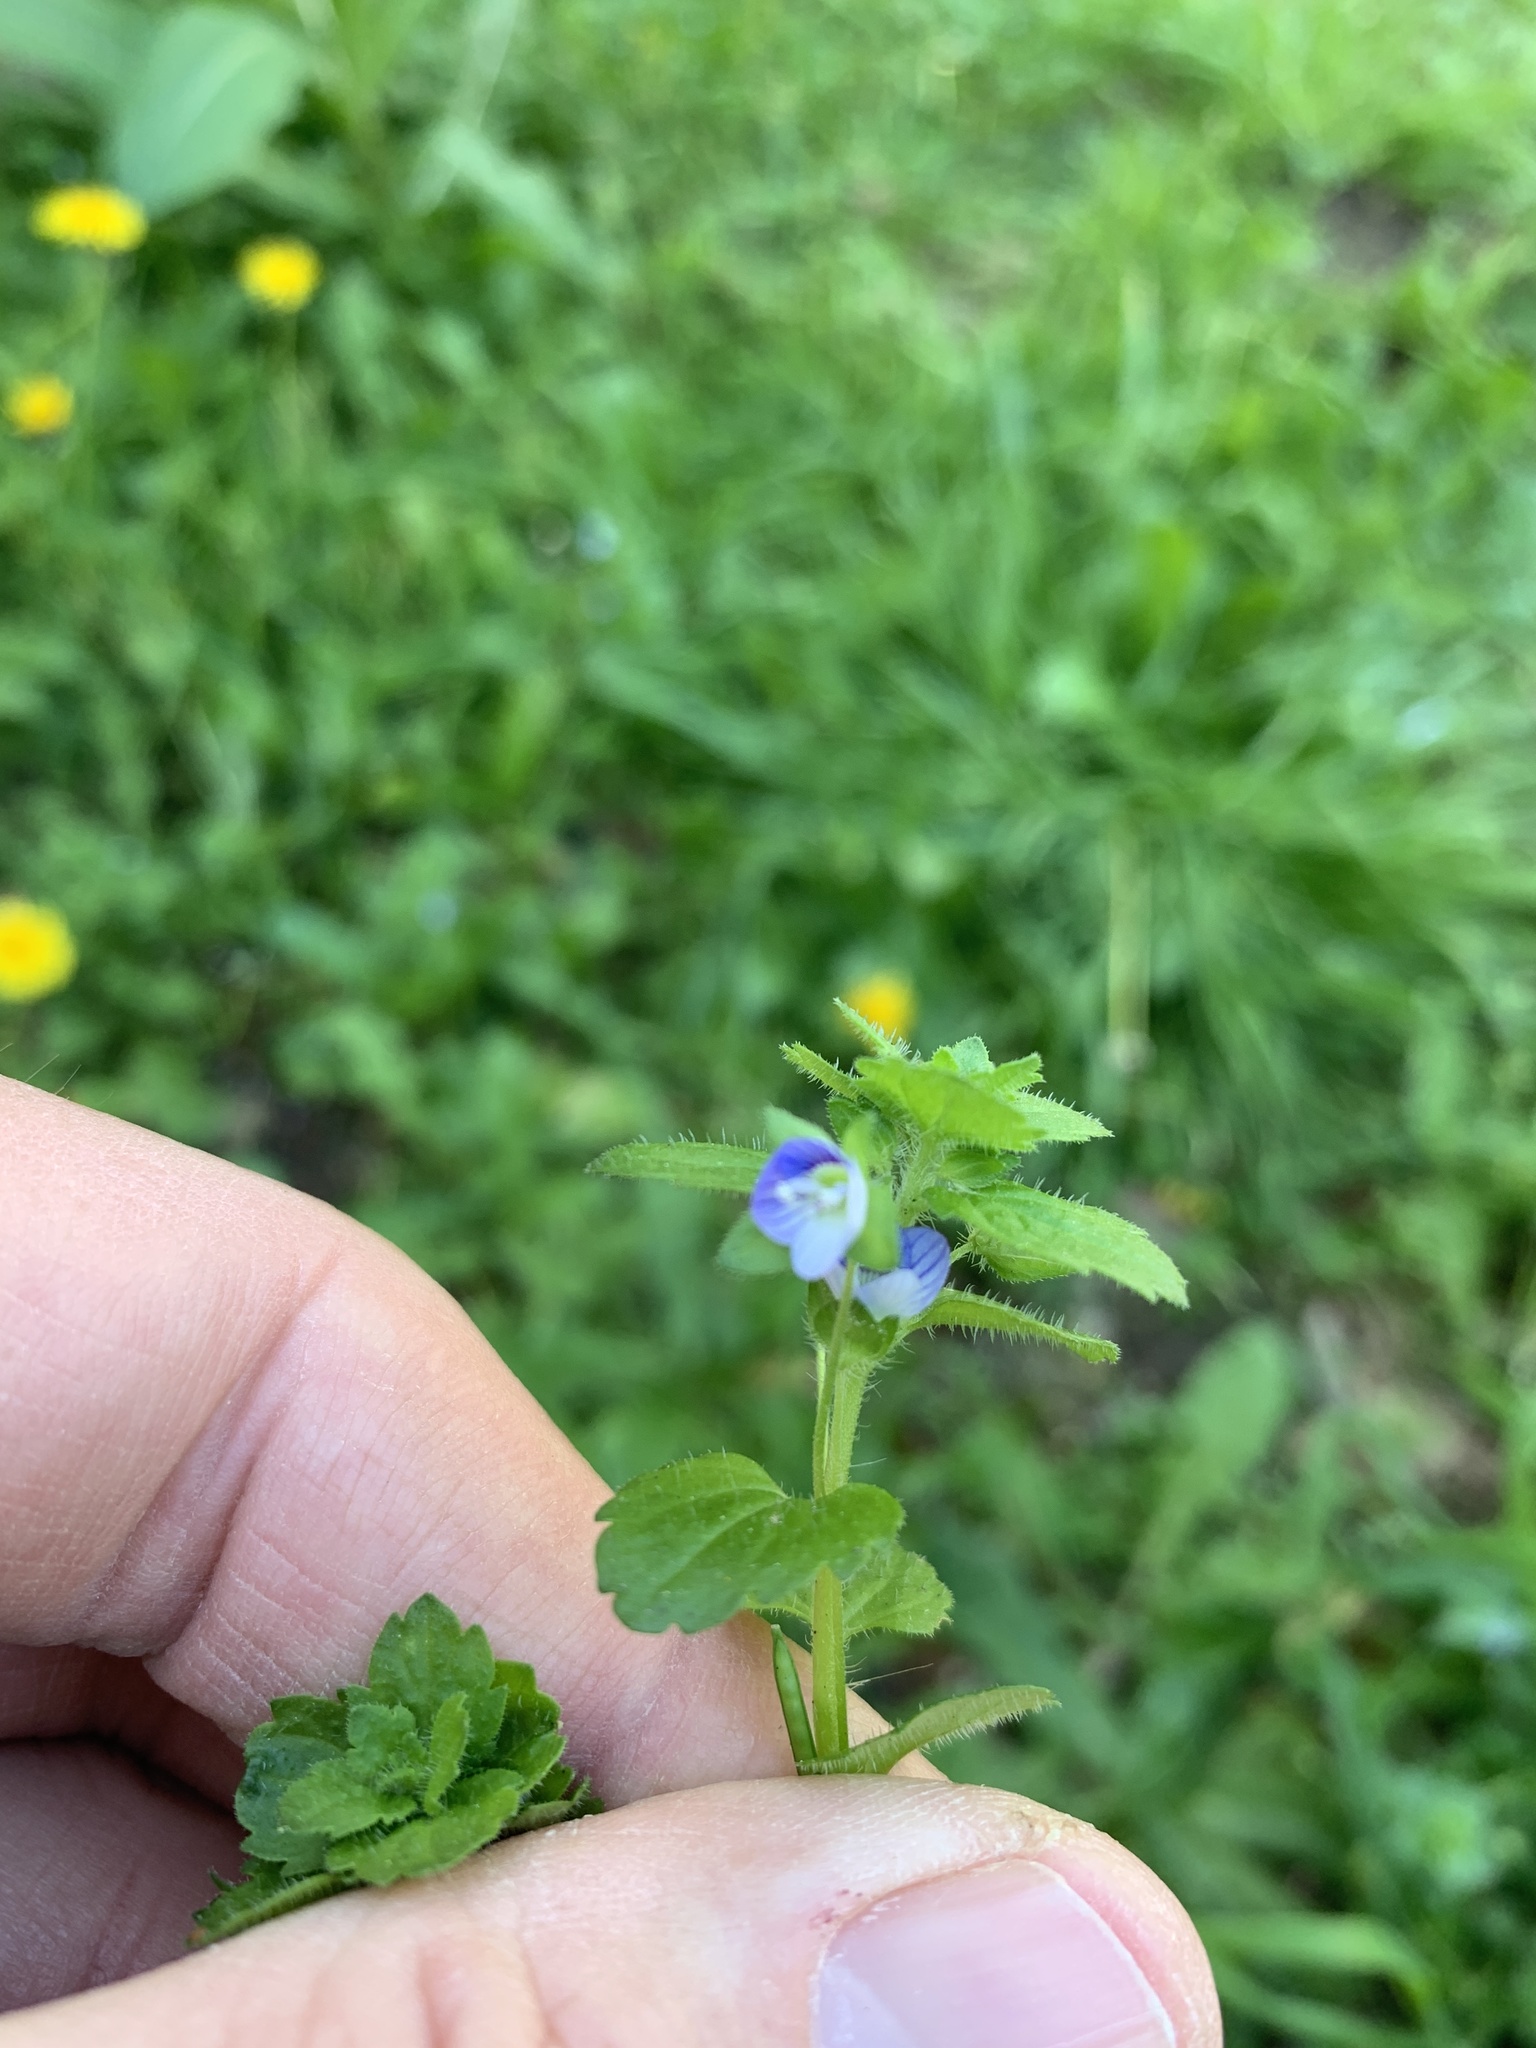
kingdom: Plantae
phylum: Tracheophyta
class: Magnoliopsida
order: Lamiales
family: Plantaginaceae
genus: Veronica
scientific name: Veronica persica
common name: Common field-speedwell
